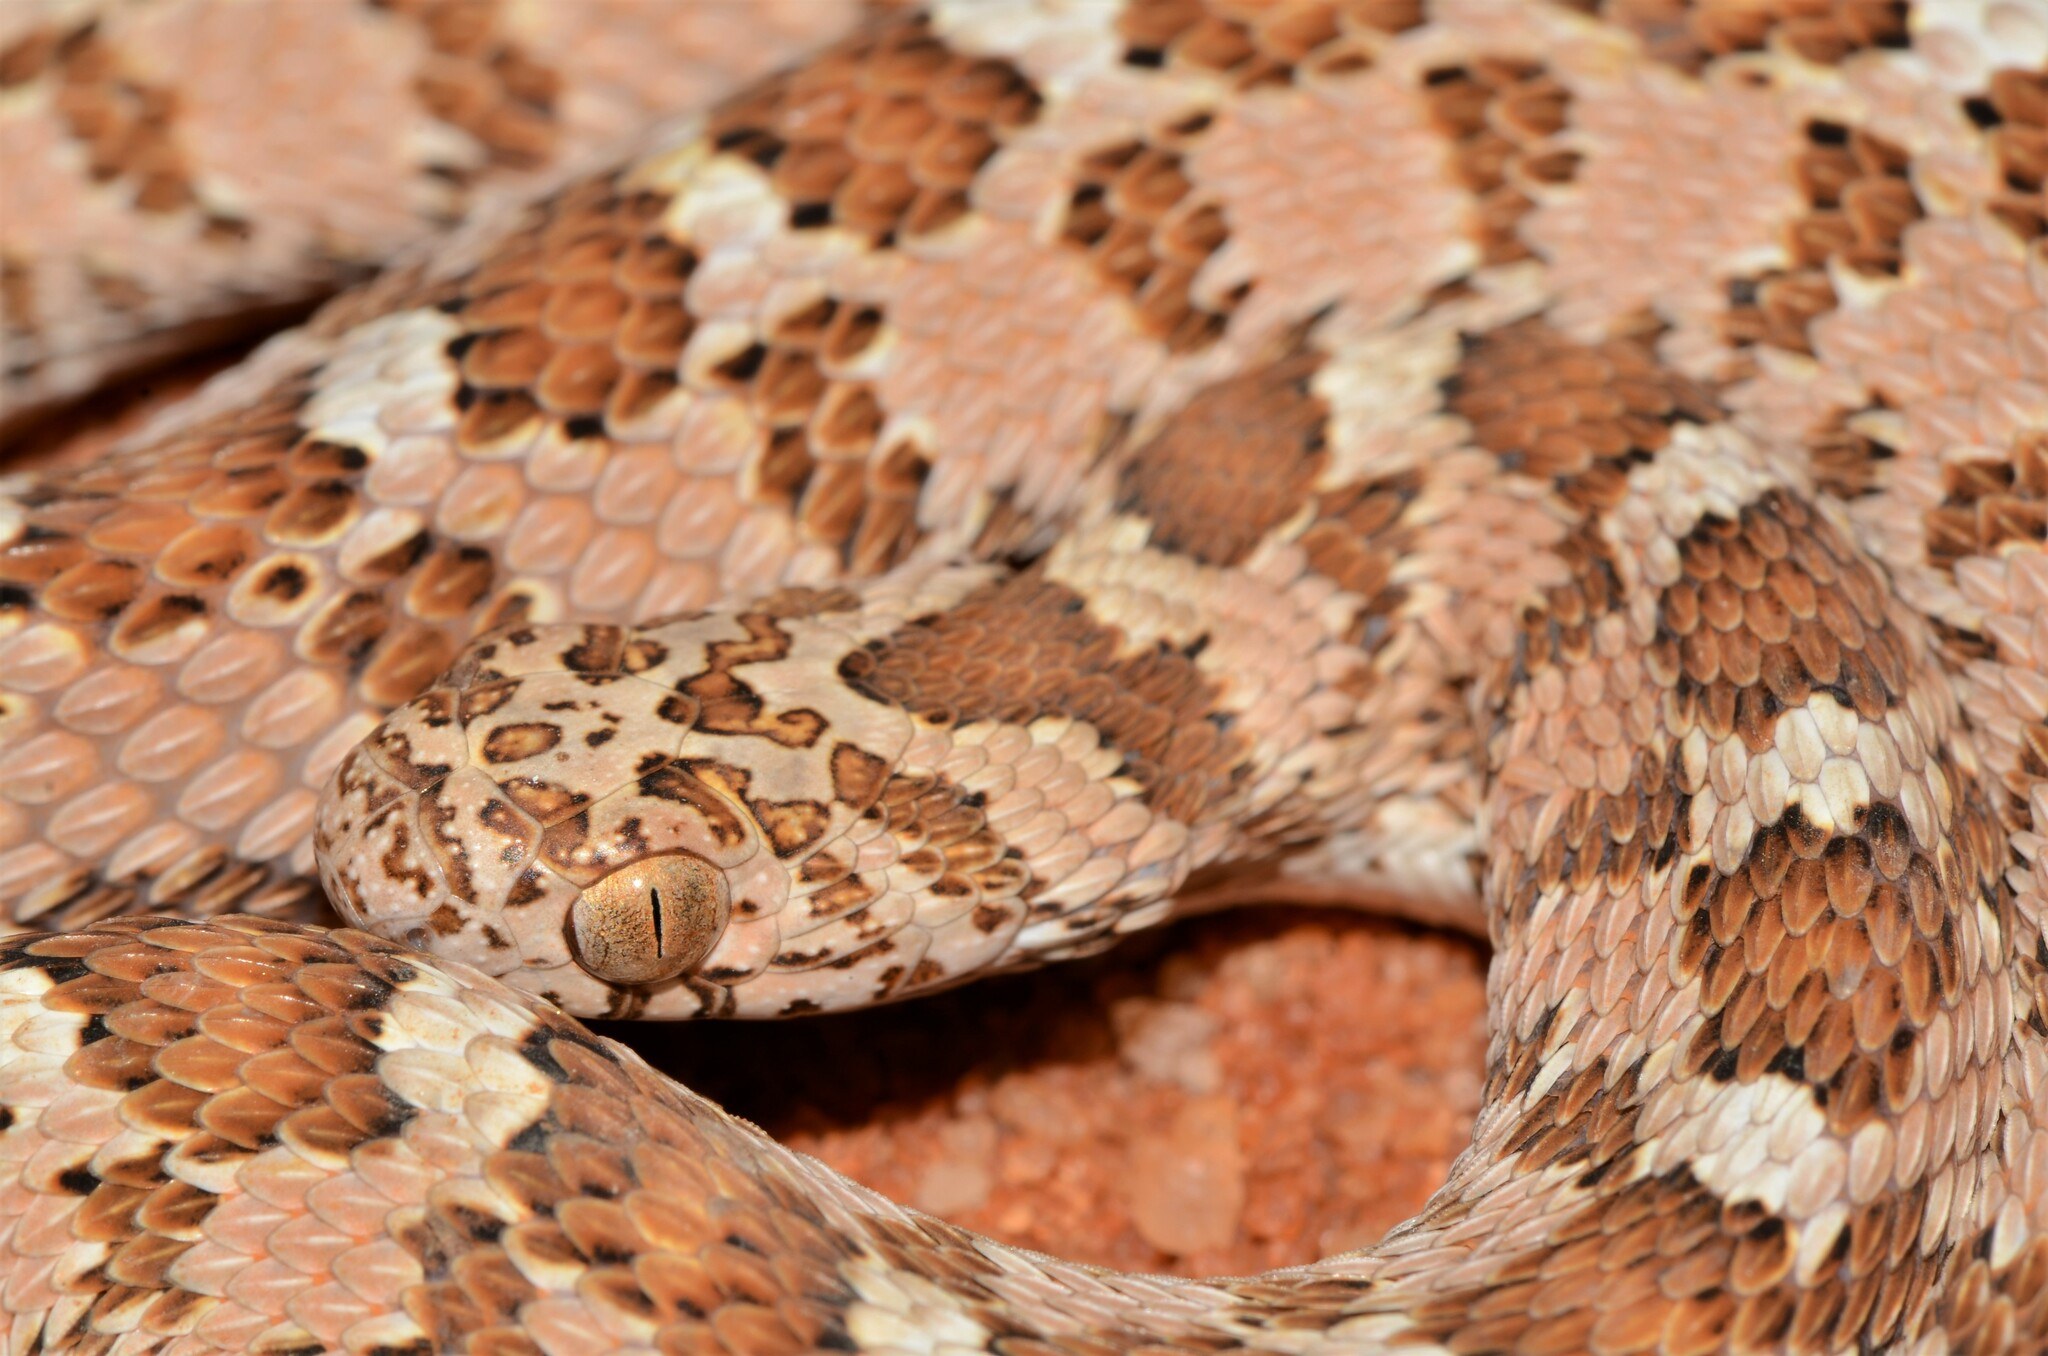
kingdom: Animalia
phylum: Chordata
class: Squamata
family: Colubridae
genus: Dasypeltis
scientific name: Dasypeltis scabra
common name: Common egg eater
